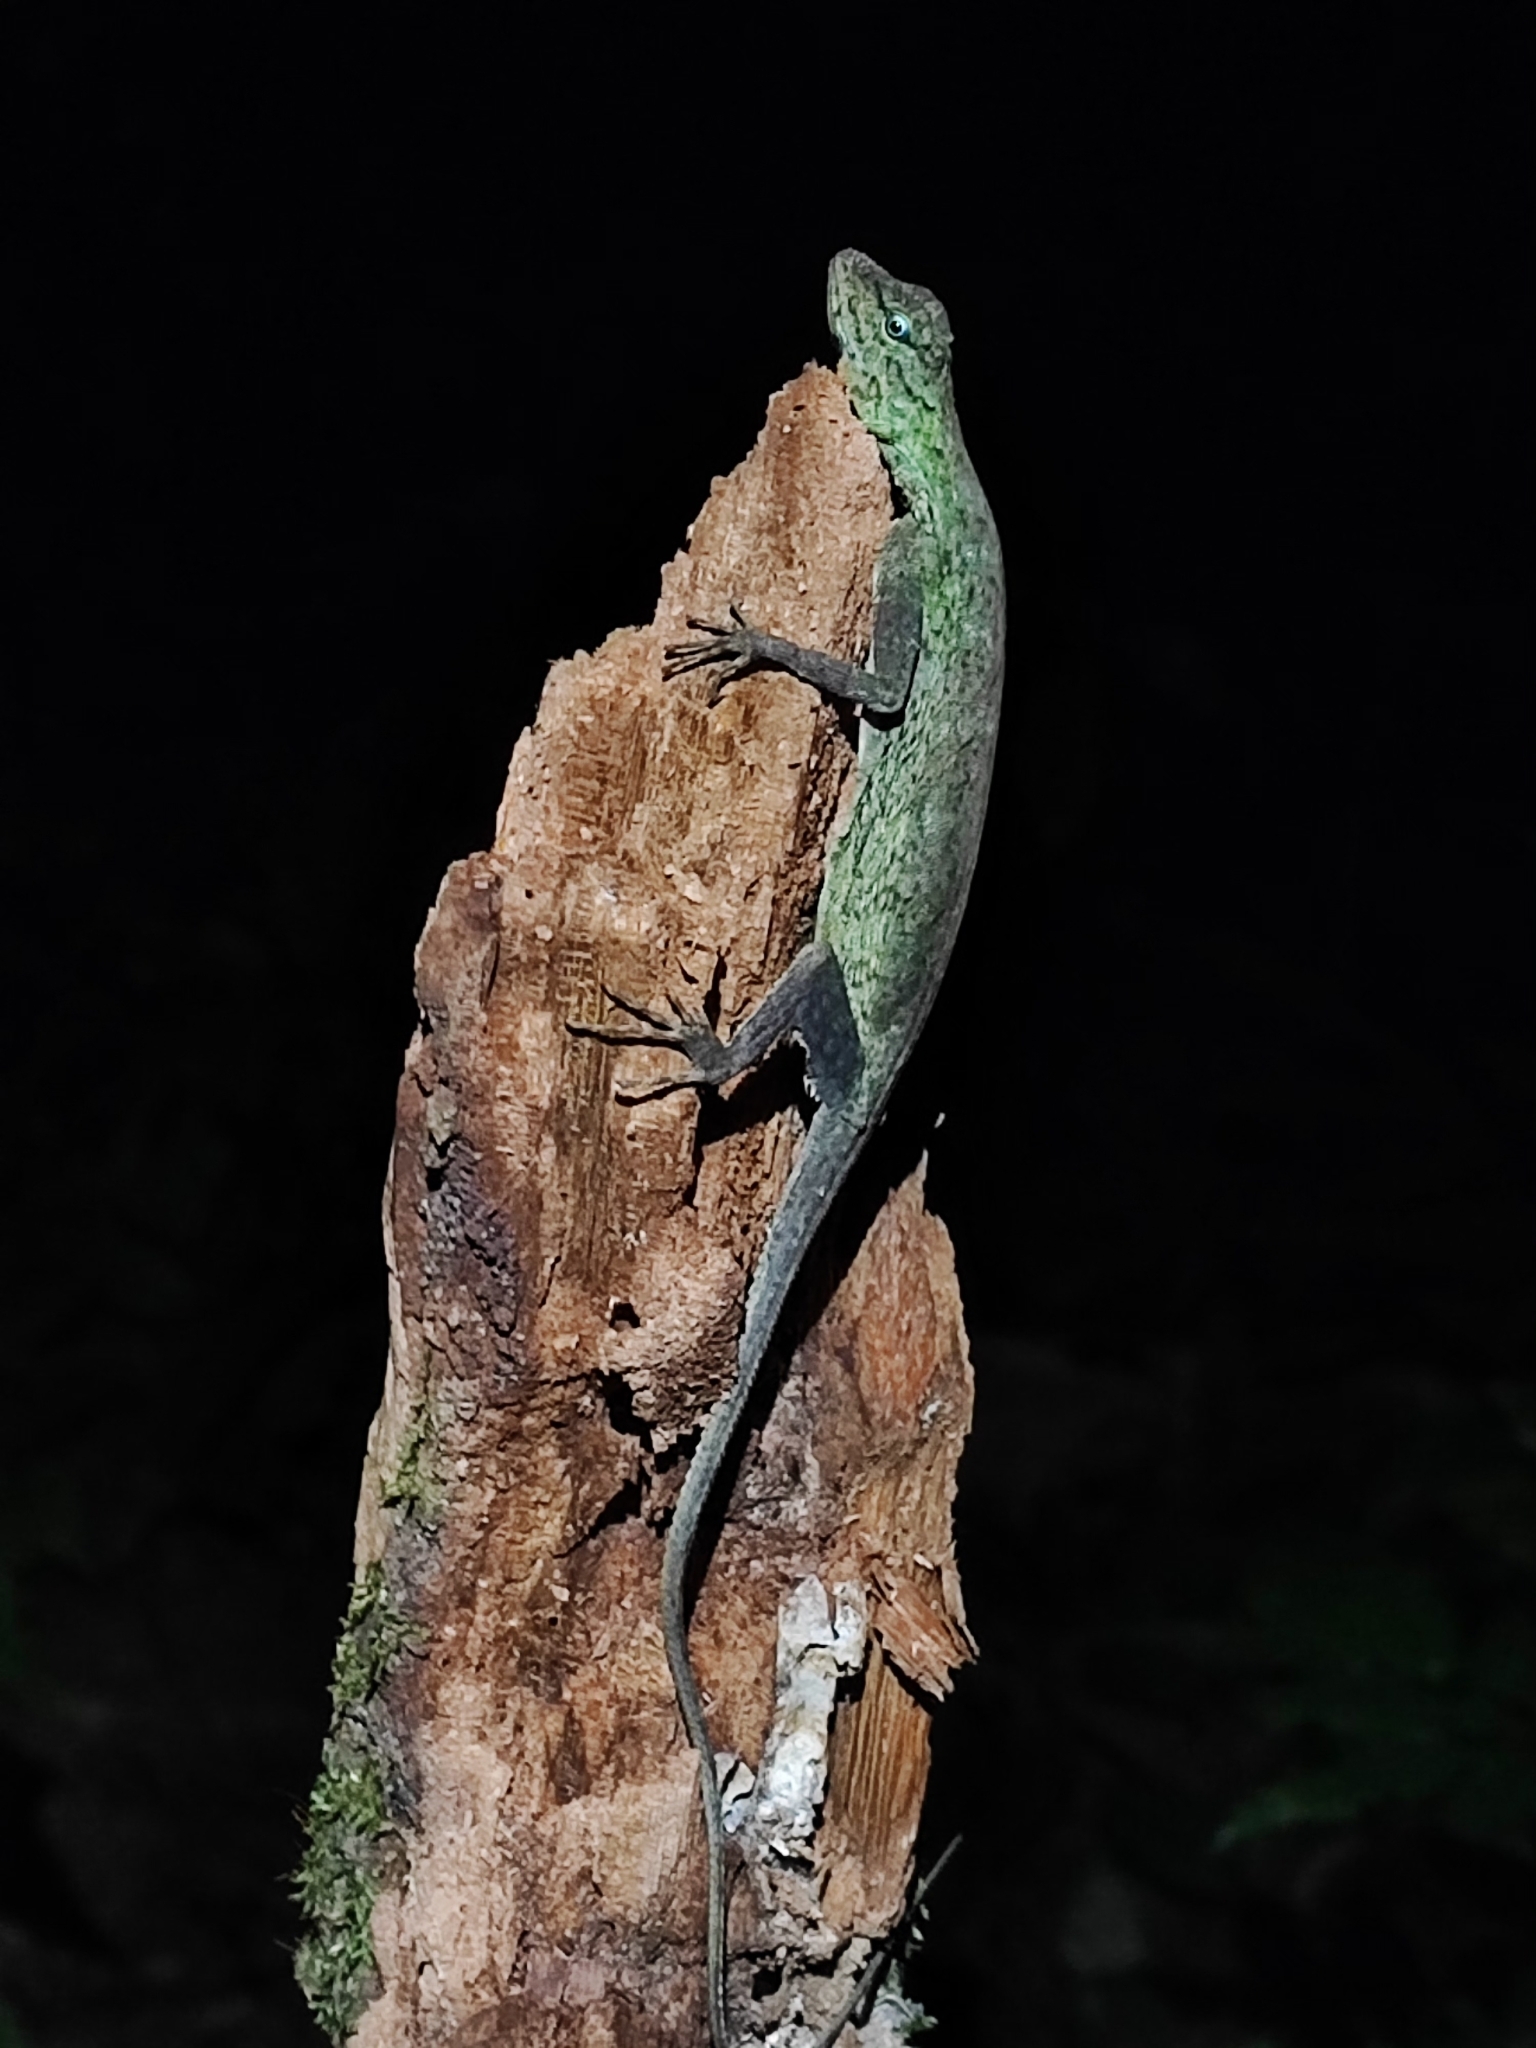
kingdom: Animalia
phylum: Chordata
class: Squamata
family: Agamidae
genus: Draco
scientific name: Draco blanfordii
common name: Blanford's flying dragon
